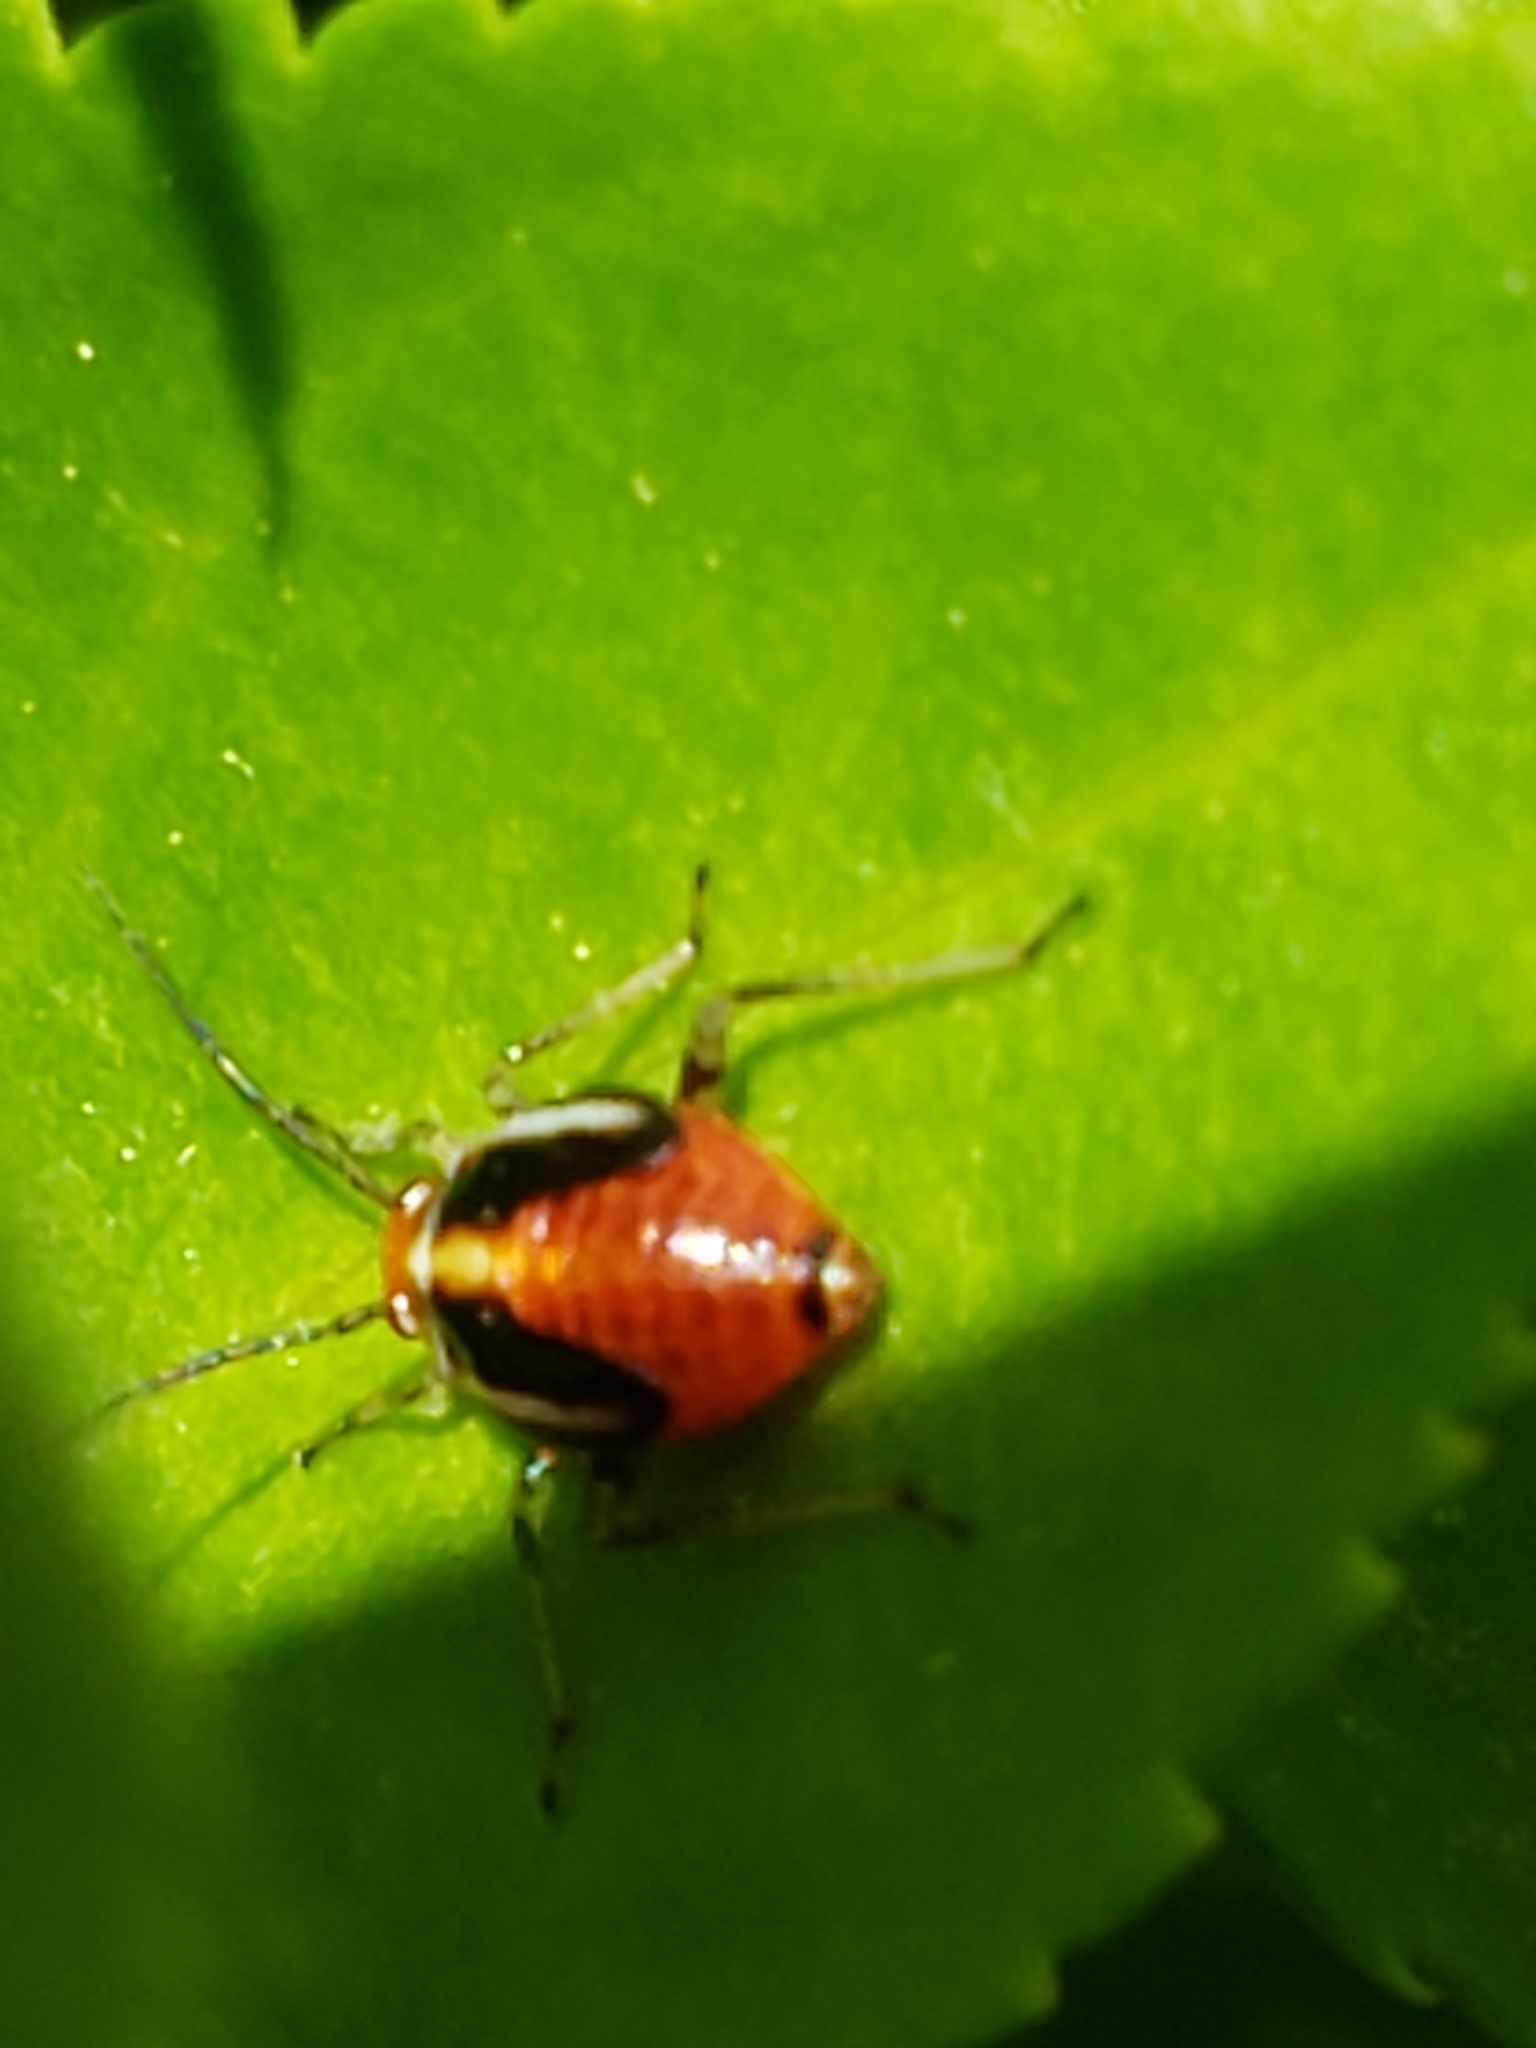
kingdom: Animalia
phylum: Arthropoda
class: Insecta
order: Hemiptera
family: Miridae
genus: Poecilocapsus
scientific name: Poecilocapsus lineatus
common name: Four-lined plant bug
